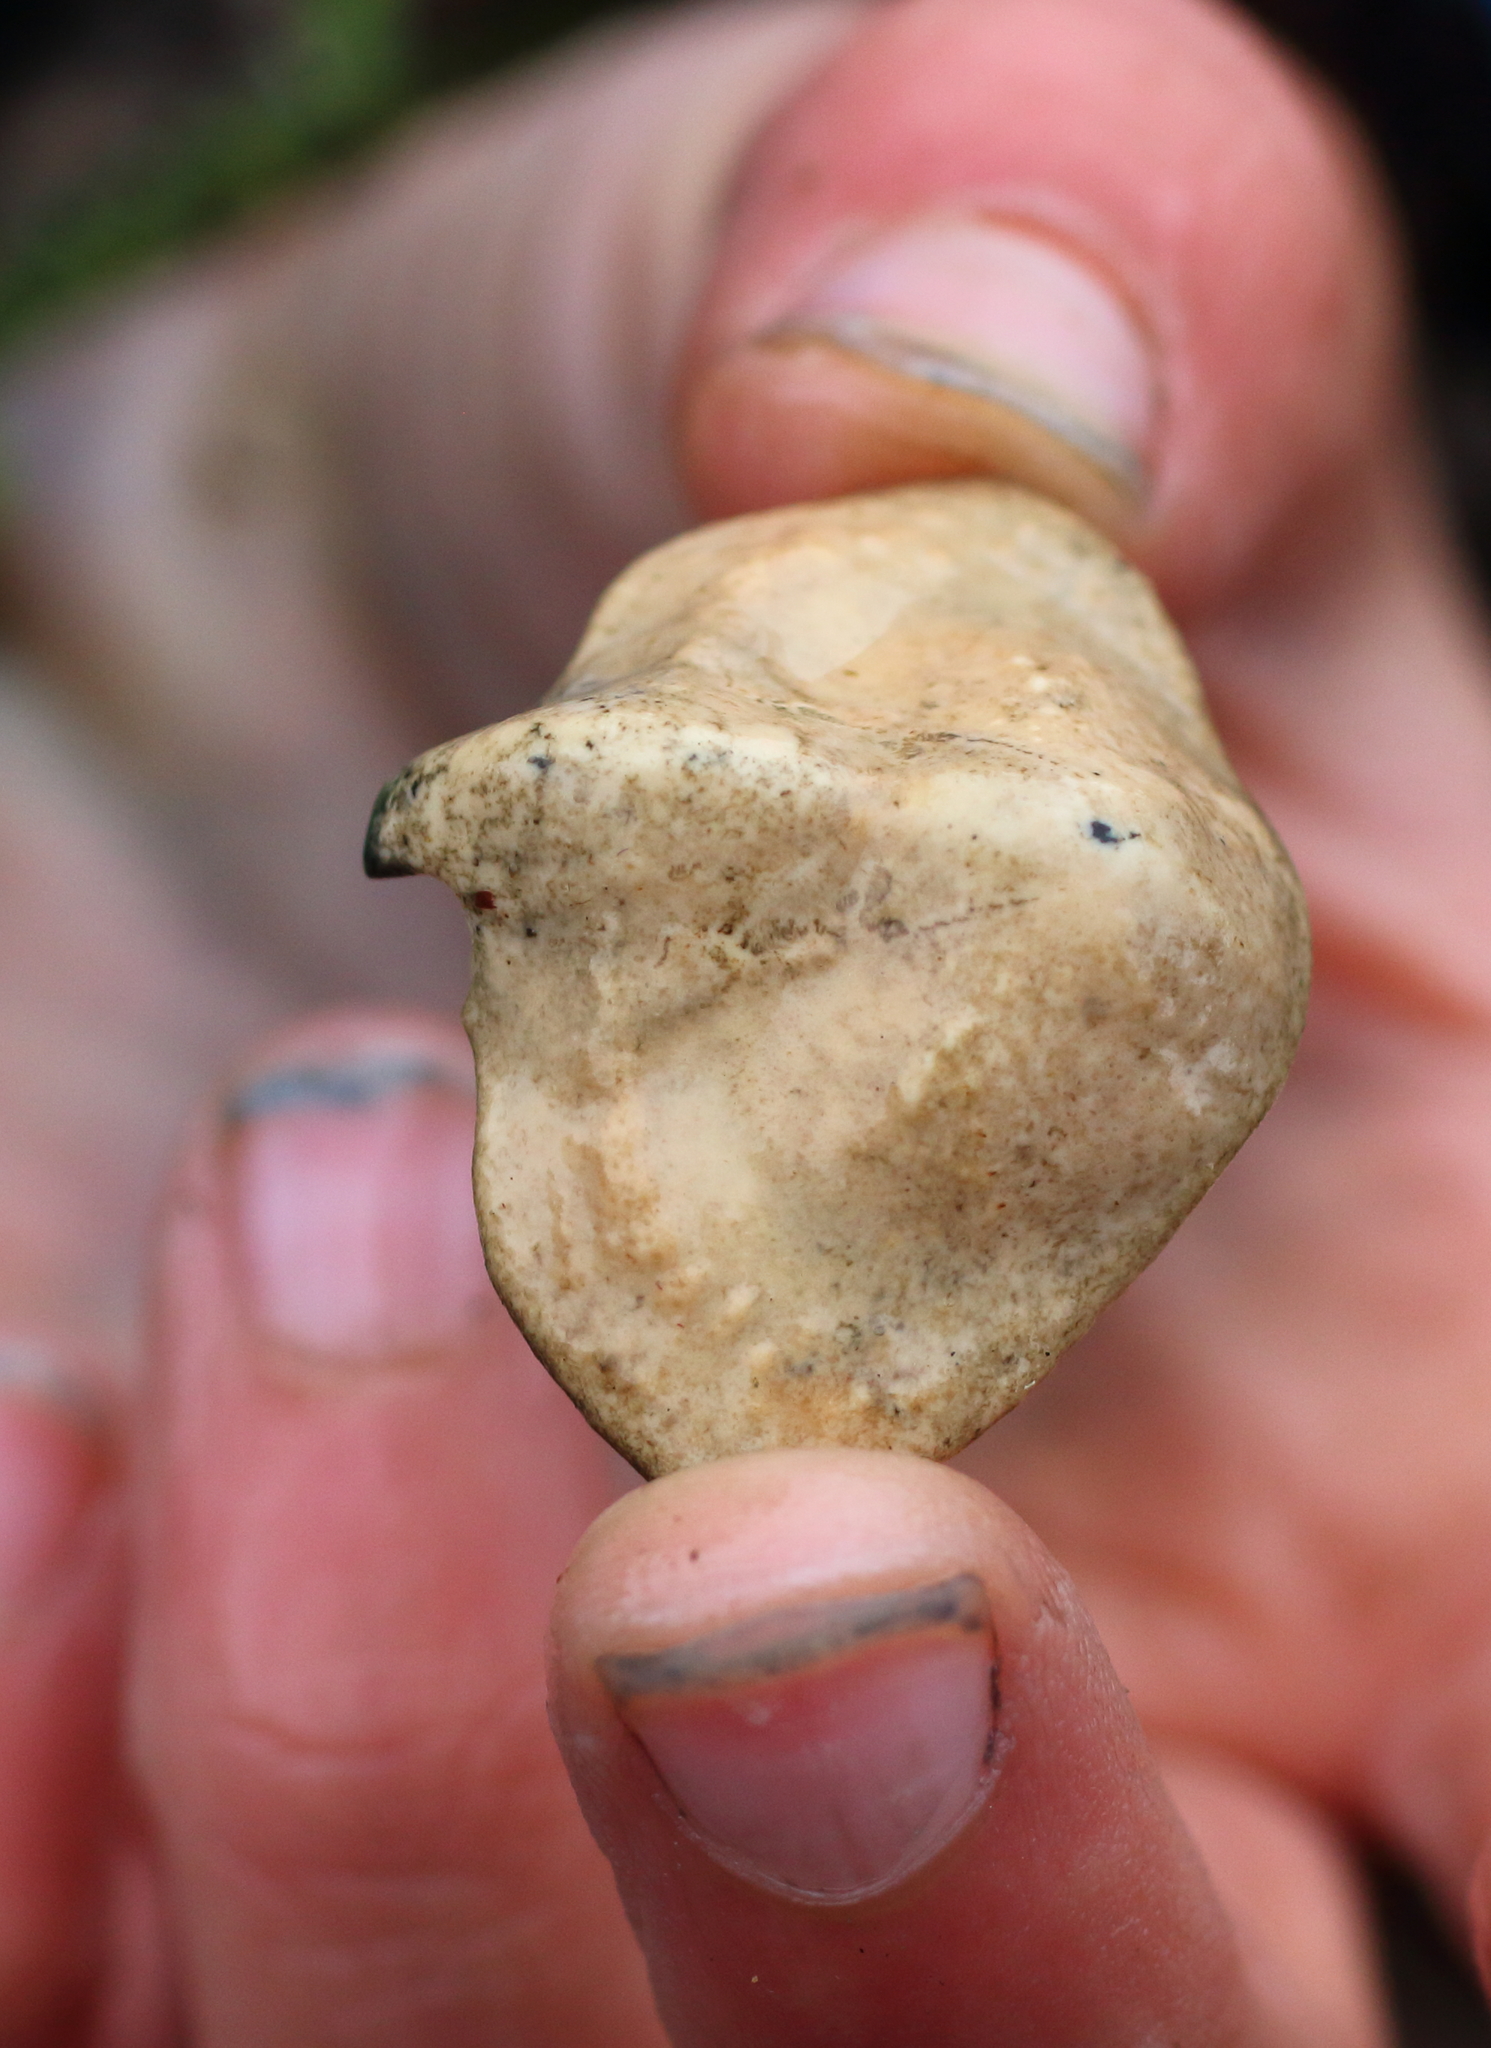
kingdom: Animalia
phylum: Arthropoda
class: Malacostraca
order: Decapoda
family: Lithodidae
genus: Cryptolithodes
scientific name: Cryptolithodes typicus
